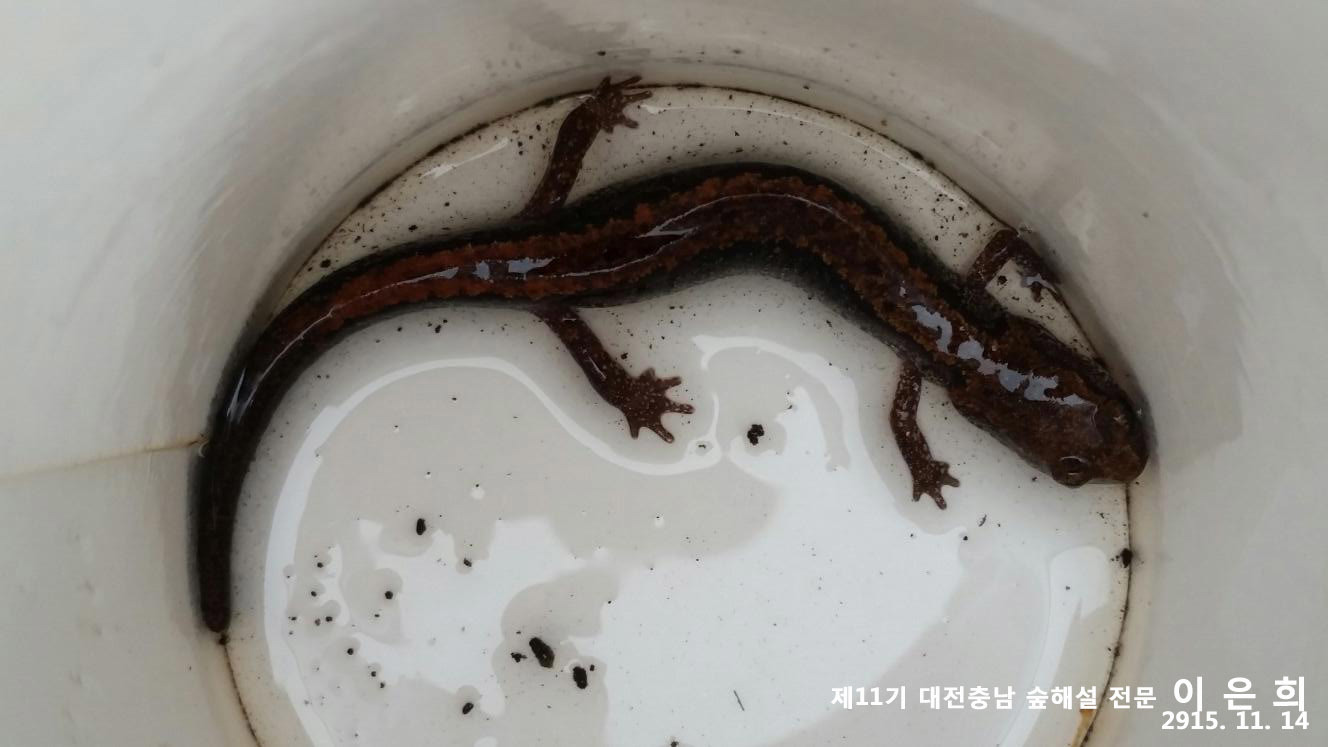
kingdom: Animalia
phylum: Chordata
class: Amphibia
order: Caudata
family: Plethodontidae
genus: Karsenia
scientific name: Karsenia koreana
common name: Korean crevice salamander
